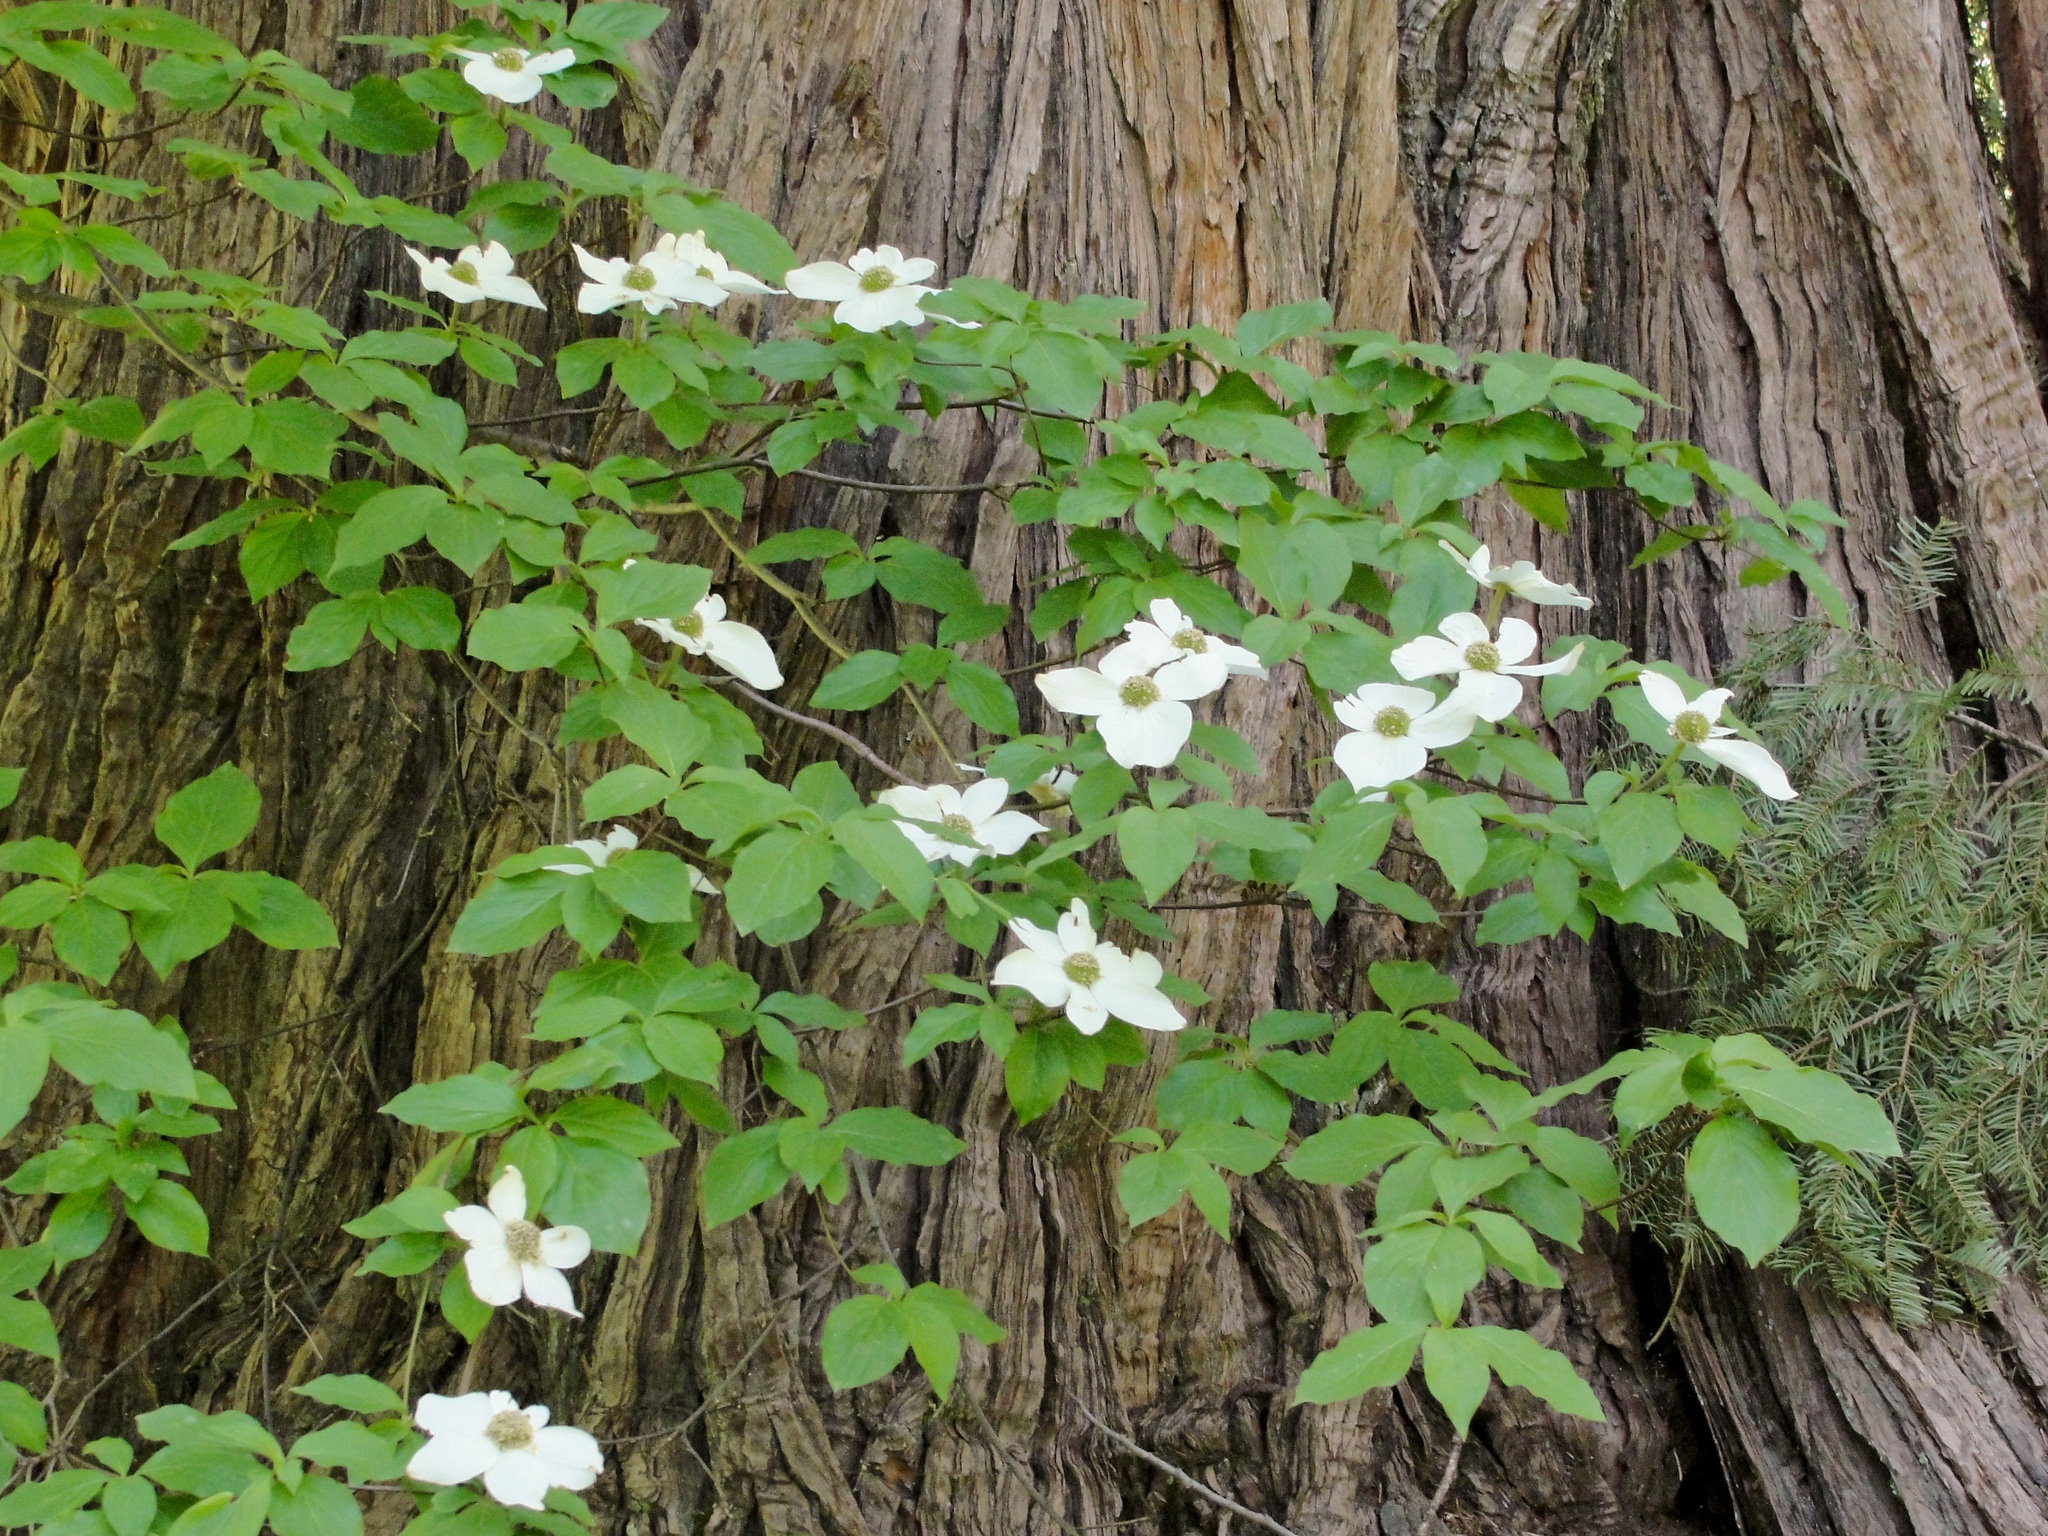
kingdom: Plantae
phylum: Tracheophyta
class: Magnoliopsida
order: Cornales
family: Cornaceae
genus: Cornus
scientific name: Cornus nuttallii
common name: Pacific dogwood
